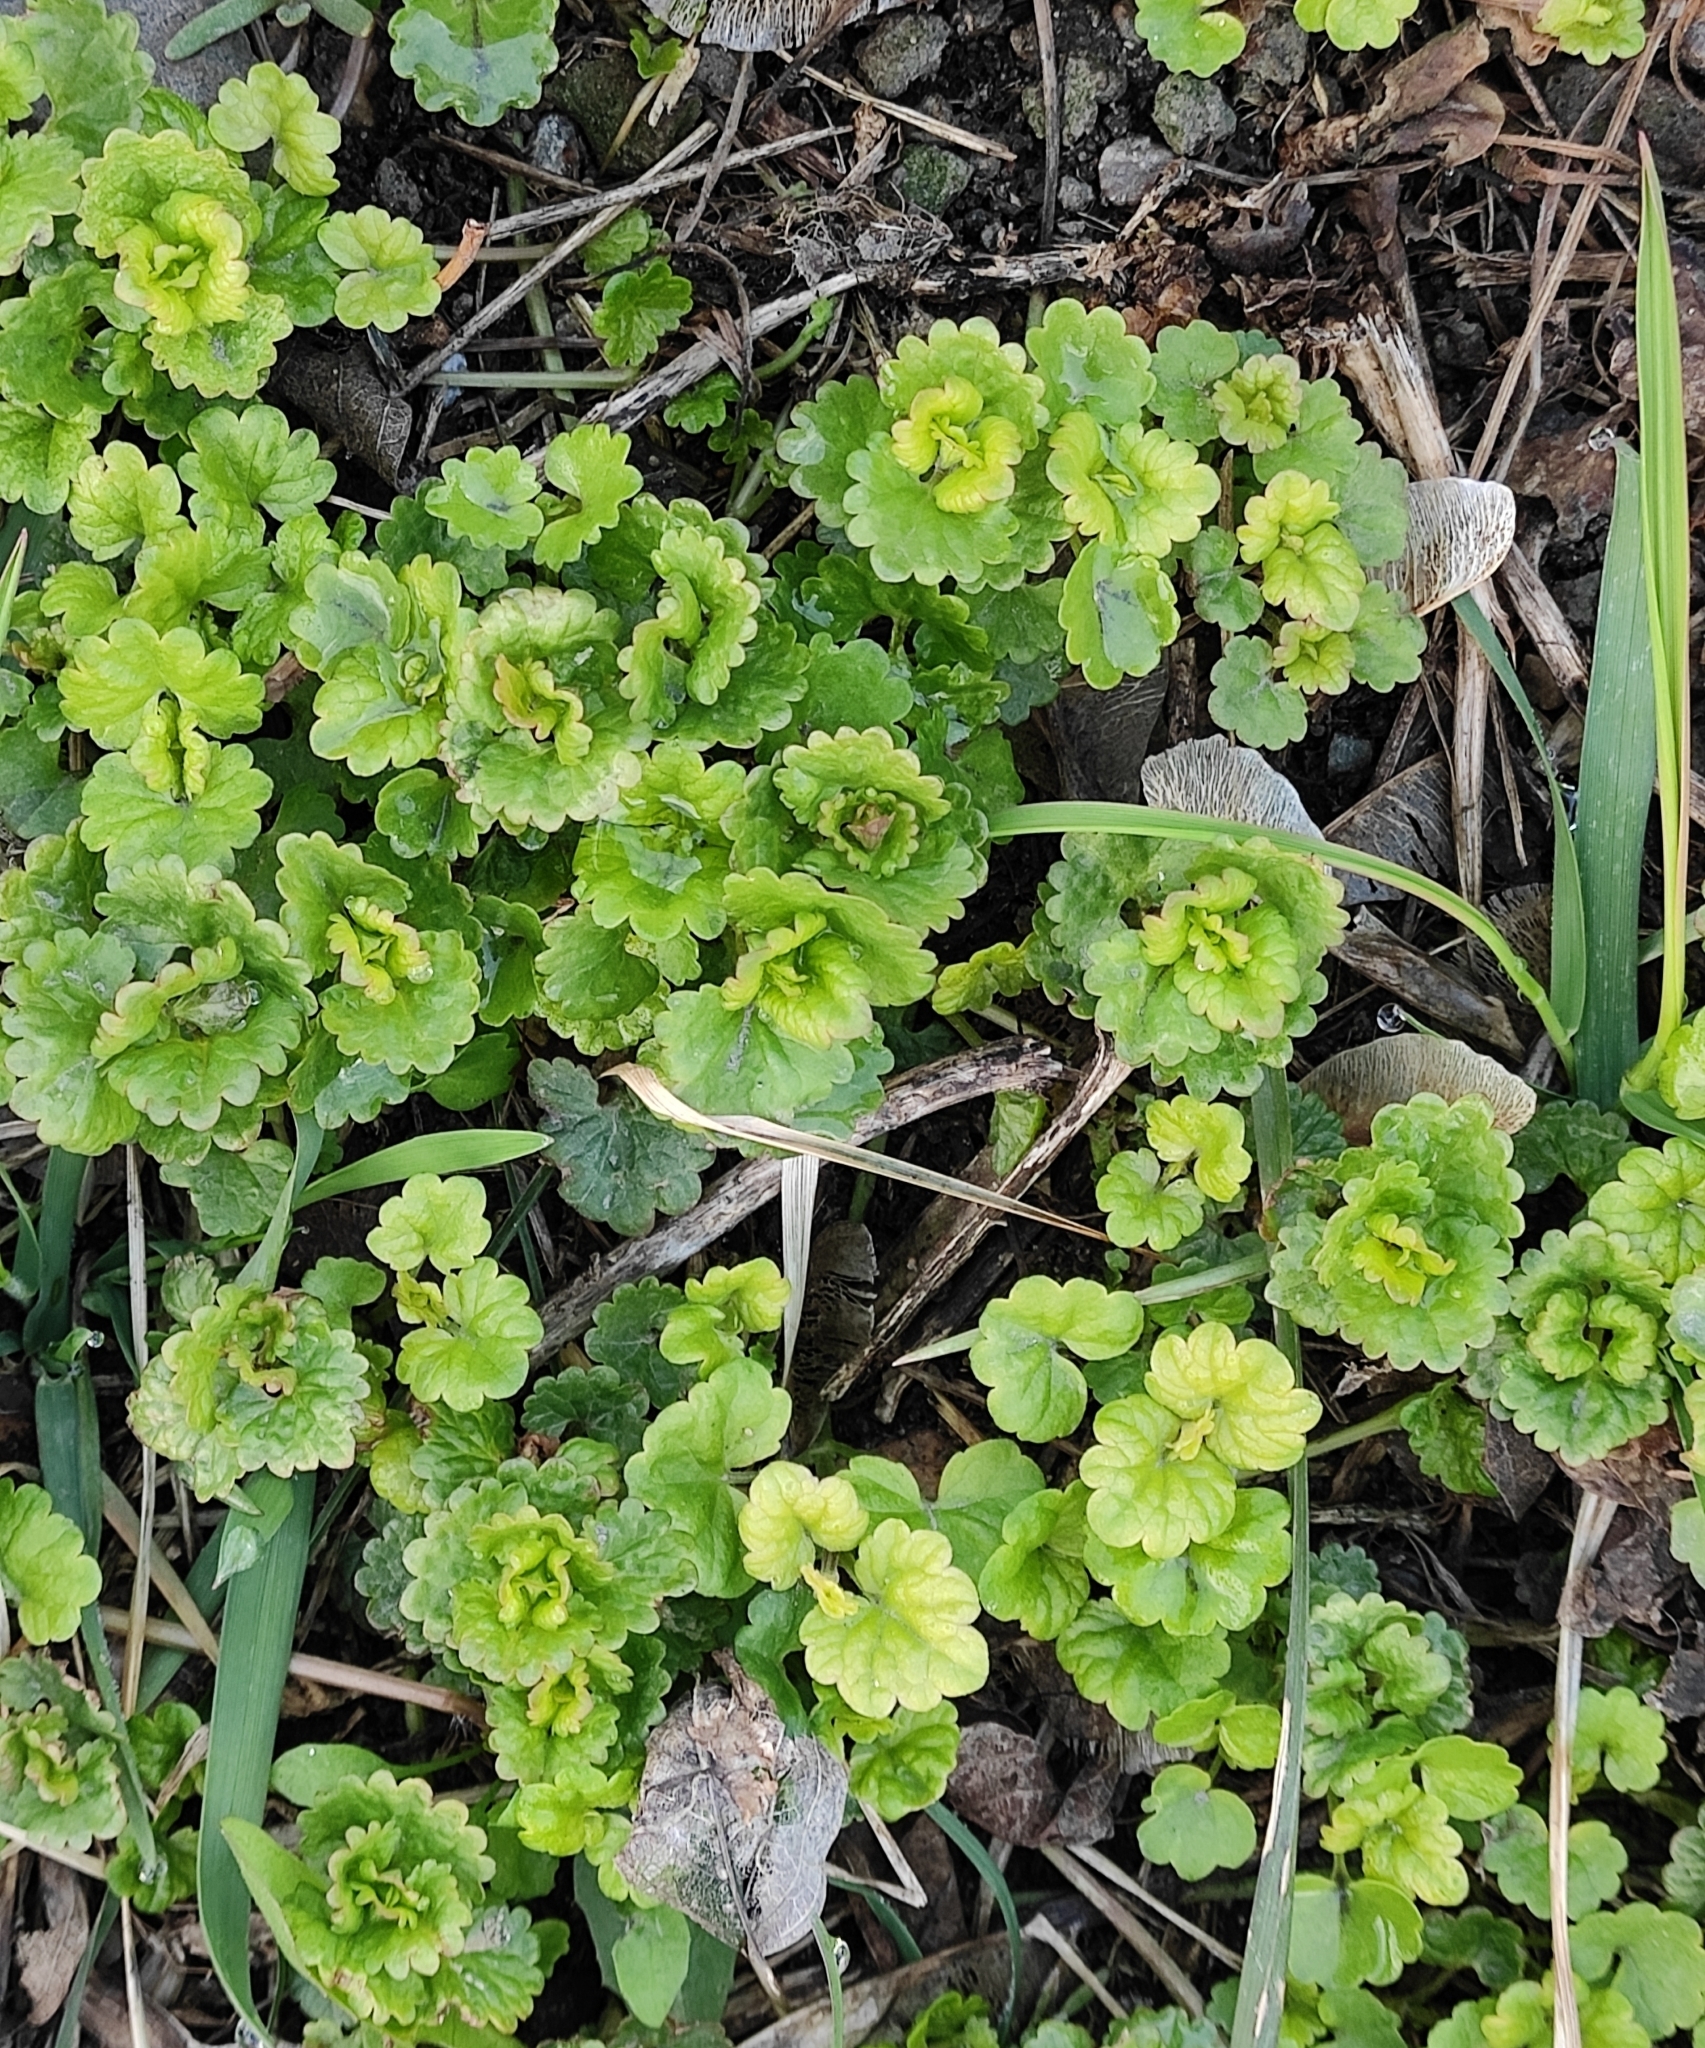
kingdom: Plantae
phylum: Tracheophyta
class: Magnoliopsida
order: Lamiales
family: Lamiaceae
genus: Glechoma
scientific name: Glechoma hederacea
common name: Ground ivy
